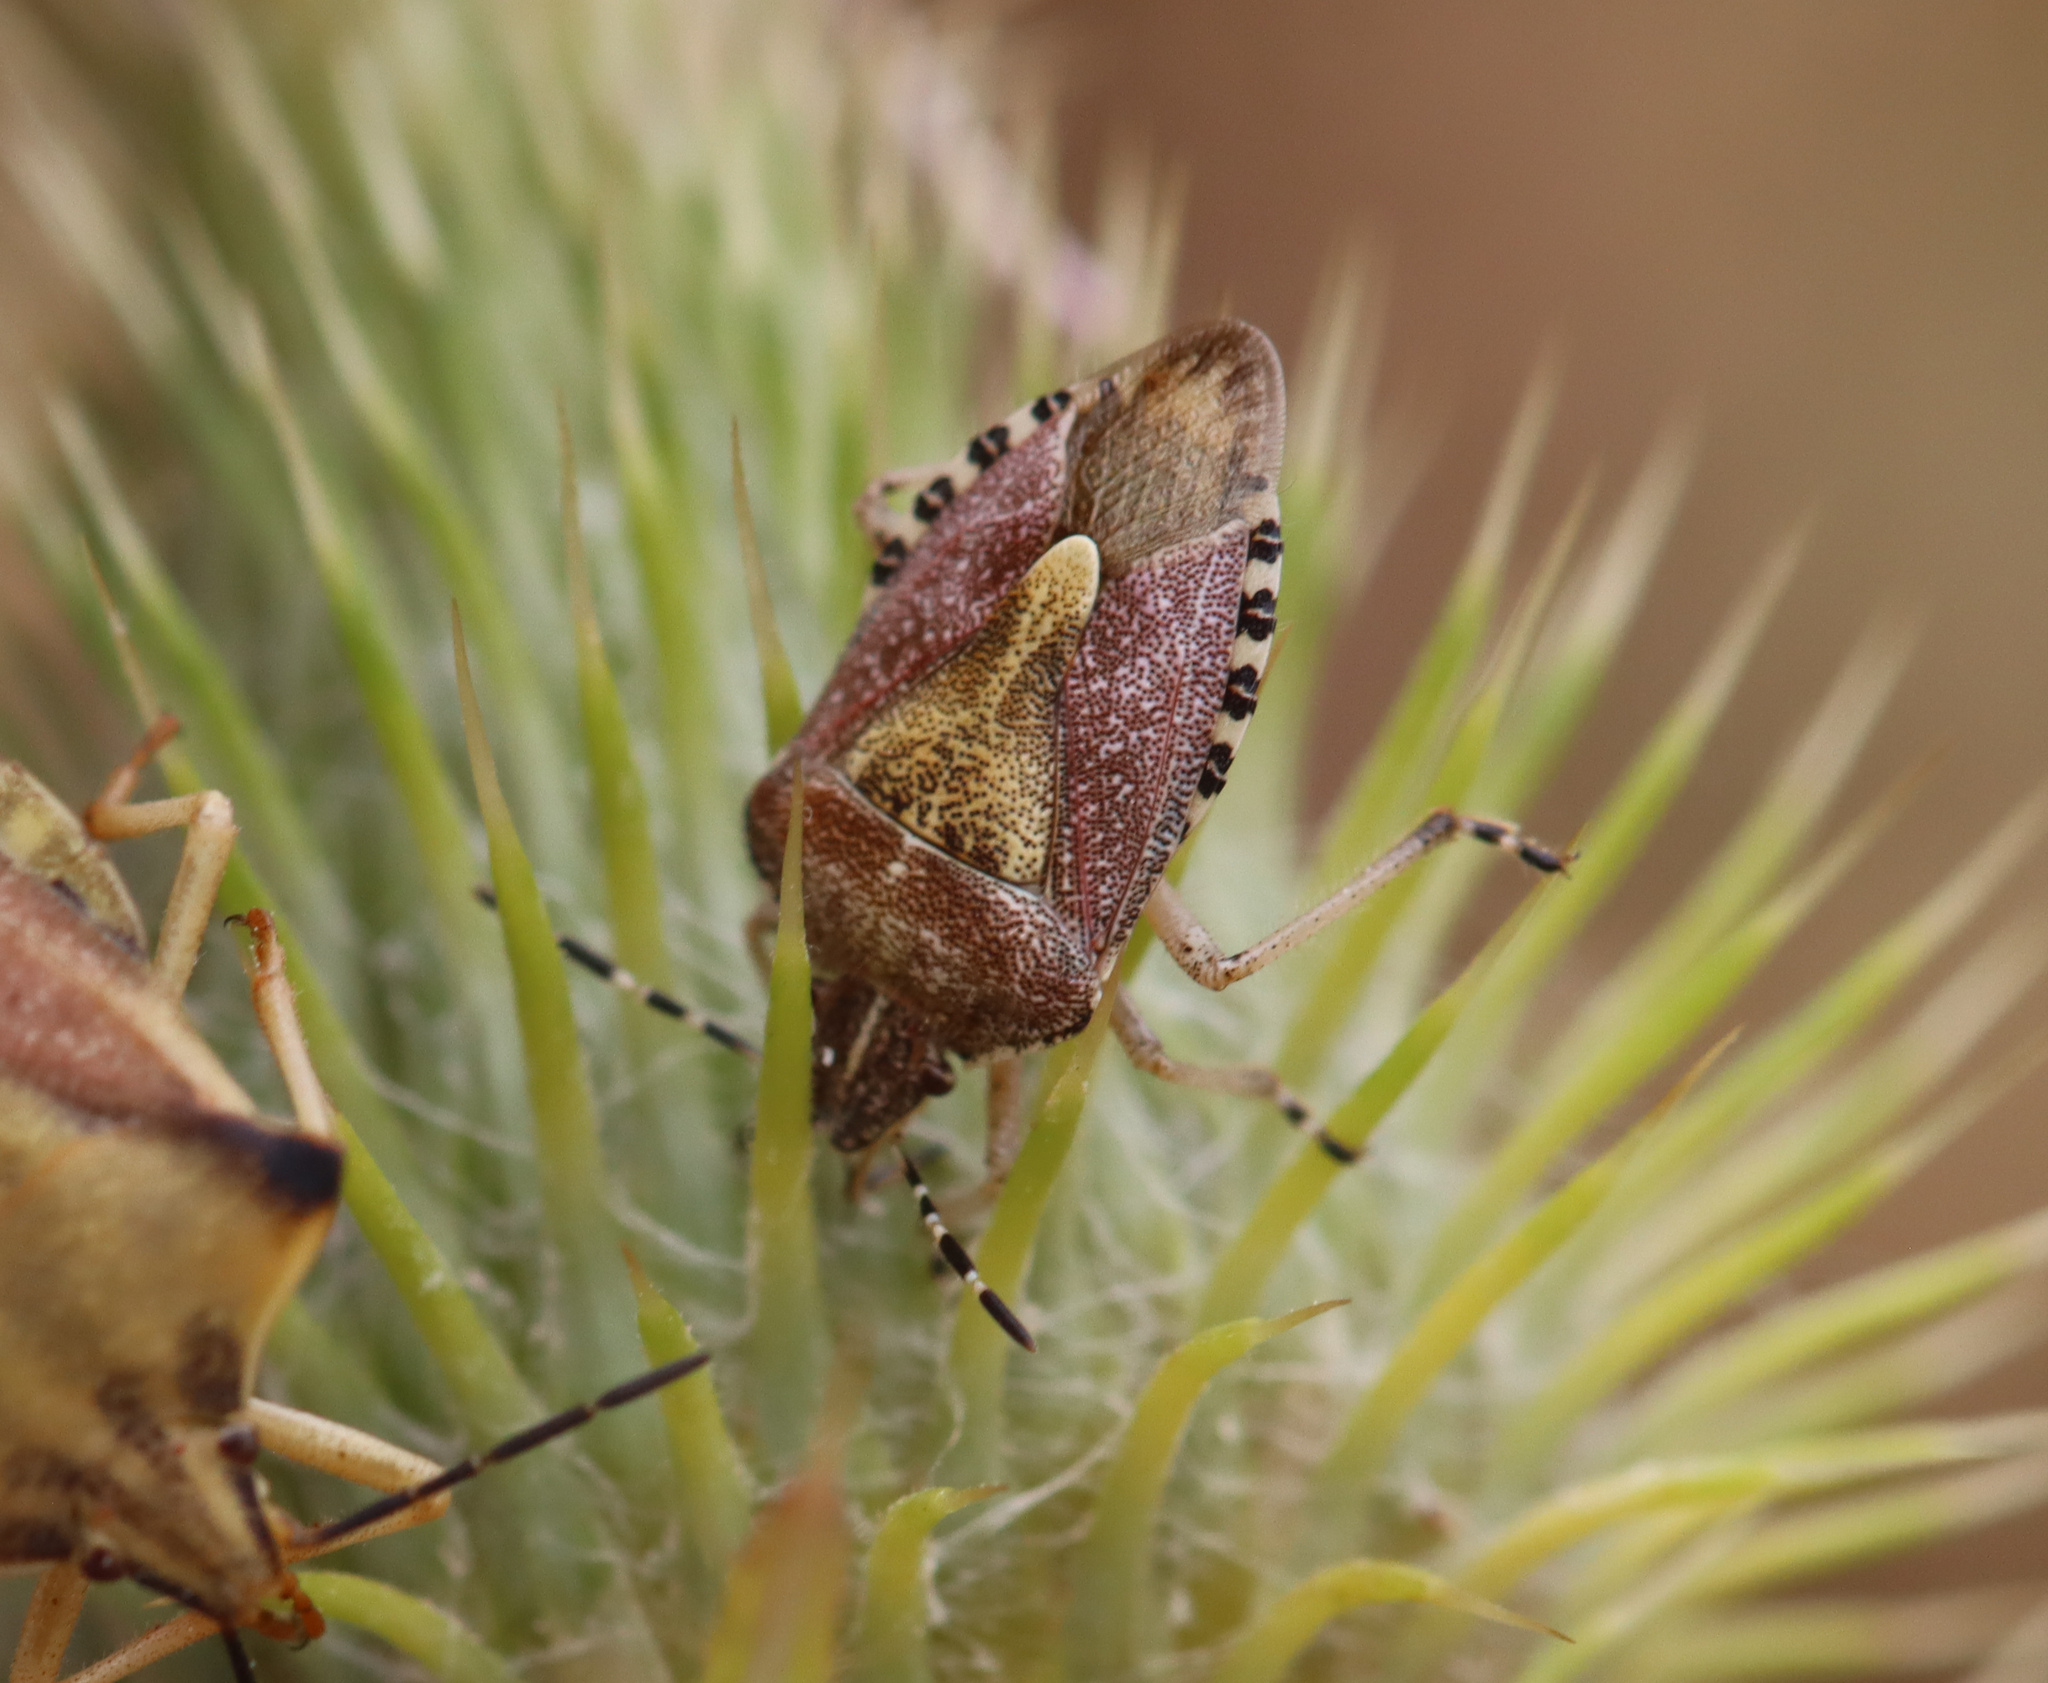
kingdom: Animalia
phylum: Arthropoda
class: Insecta
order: Hemiptera
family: Pentatomidae
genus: Dolycoris
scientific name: Dolycoris baccarum
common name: Sloe bug
